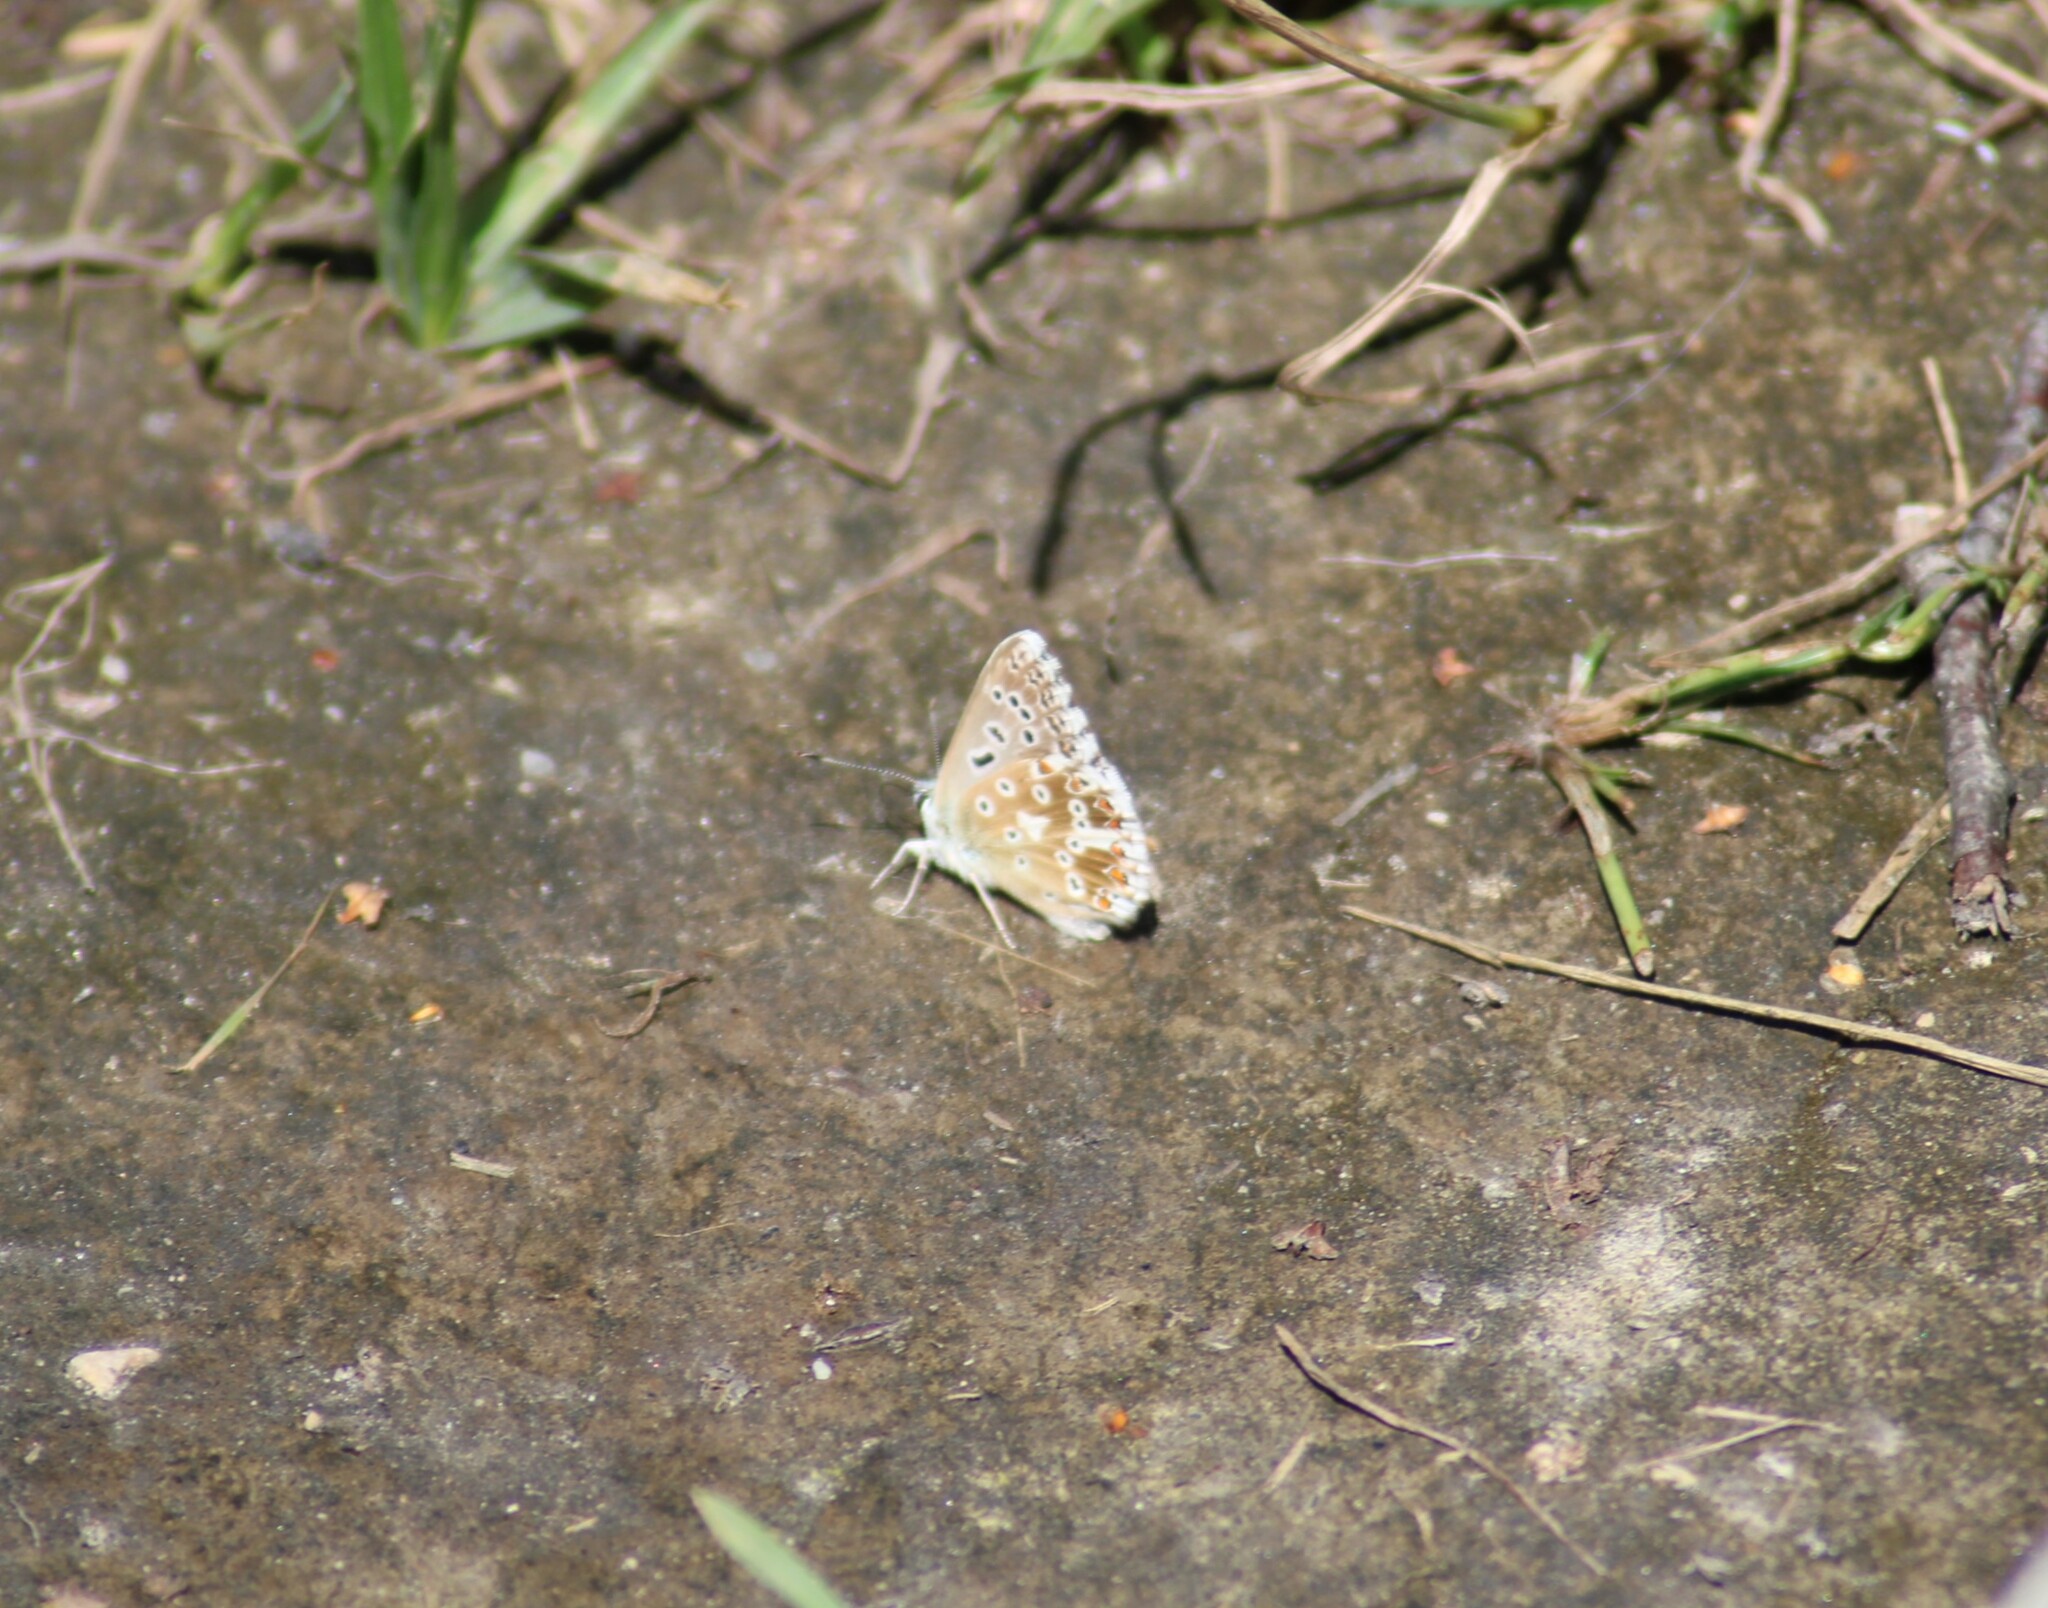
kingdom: Animalia
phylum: Arthropoda
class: Insecta
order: Lepidoptera
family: Lycaenidae
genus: Lysandra
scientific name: Lysandra coridon
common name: Chalkhill blue
